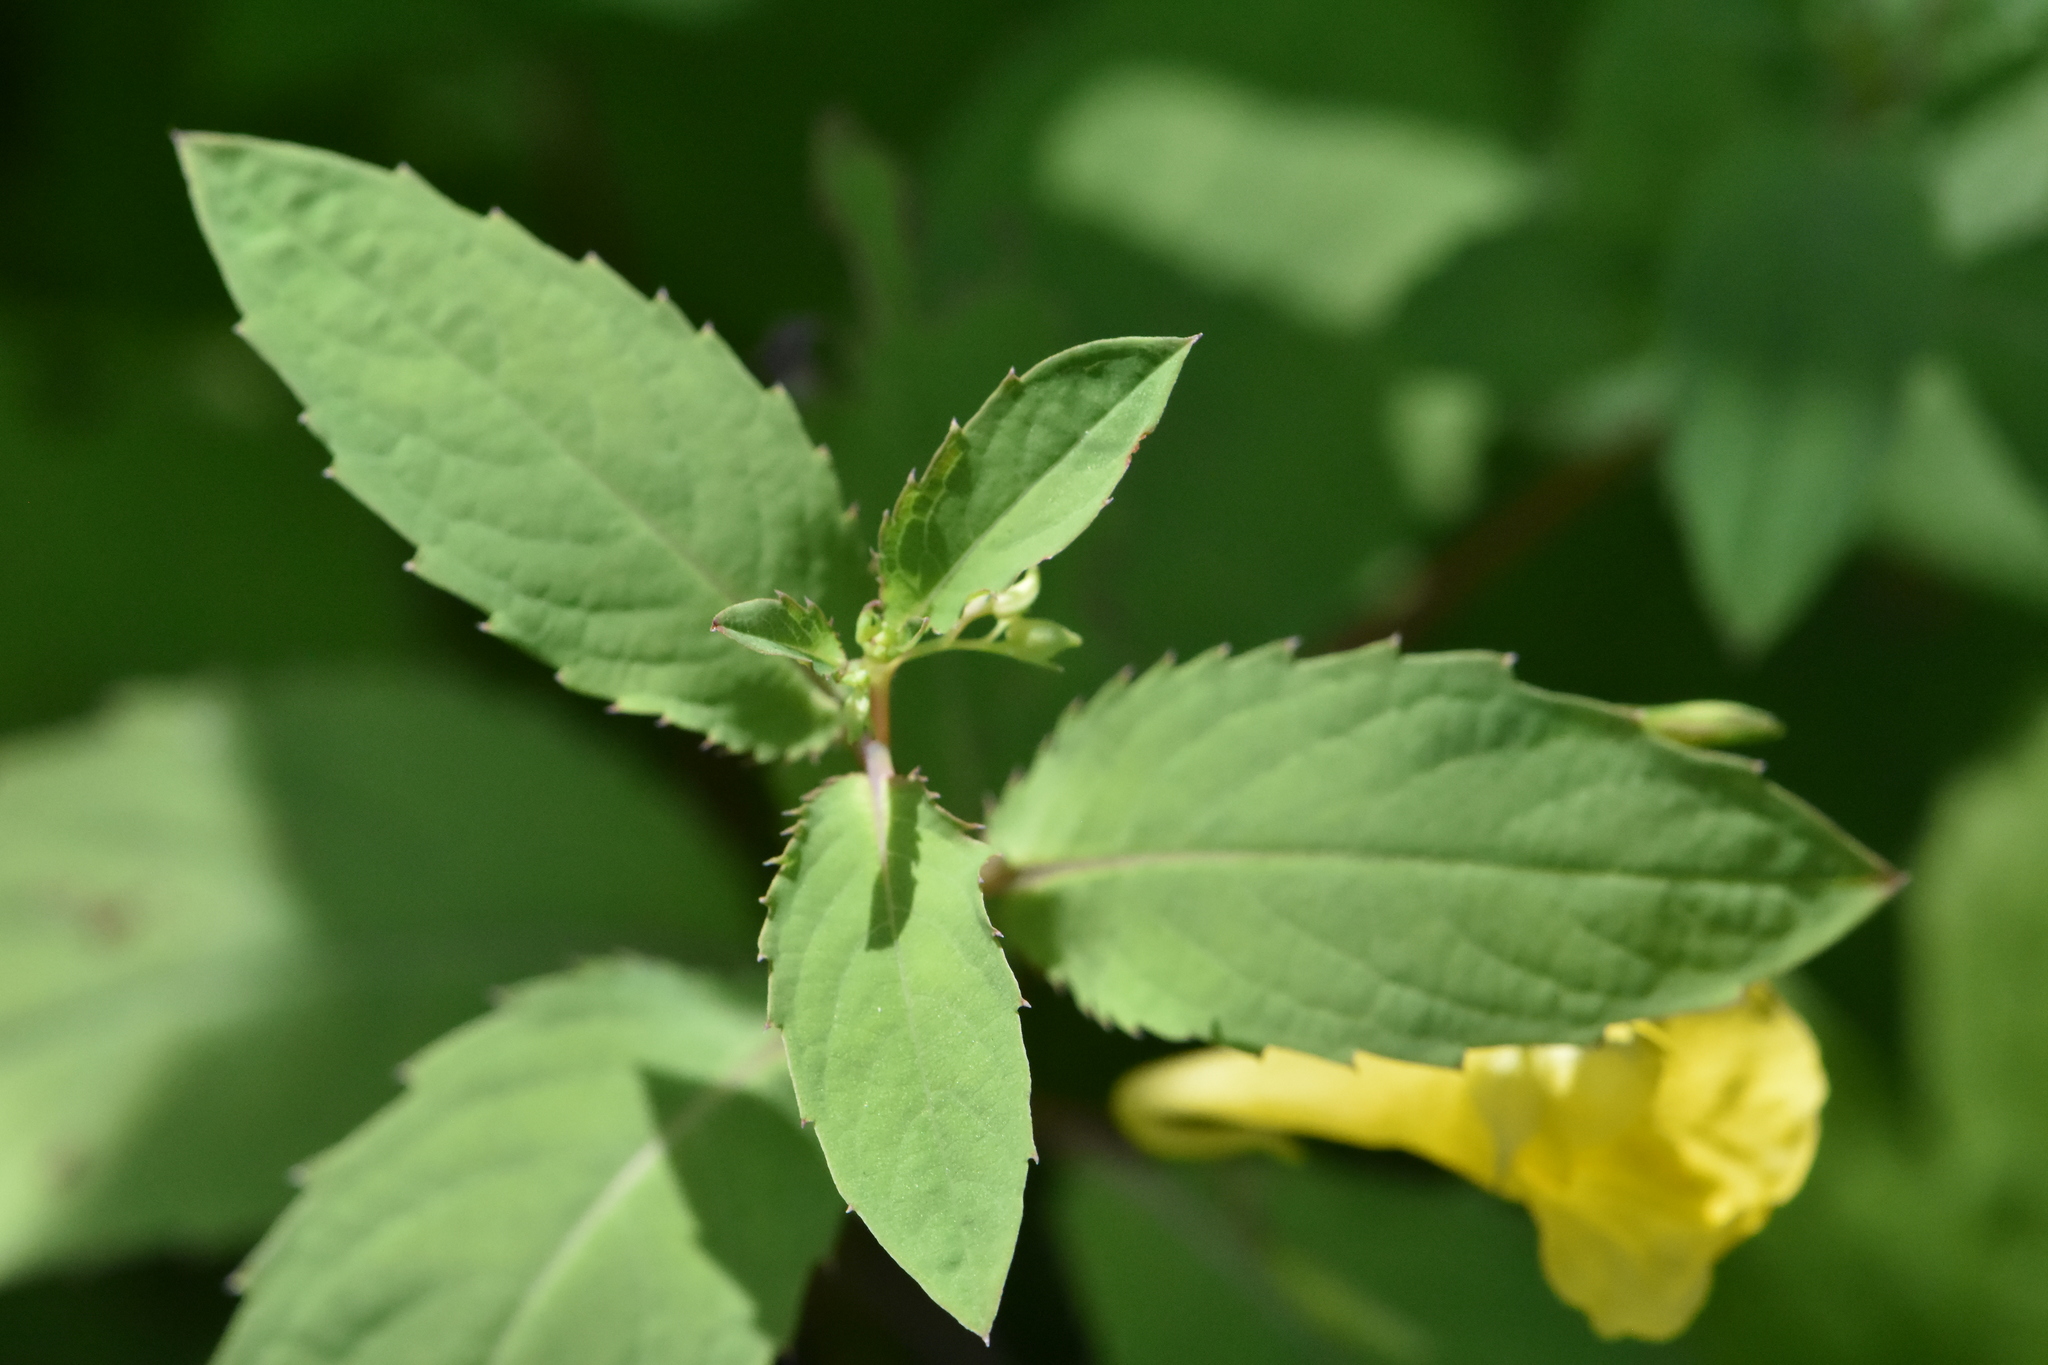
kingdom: Plantae
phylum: Tracheophyta
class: Magnoliopsida
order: Ericales
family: Balsaminaceae
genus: Impatiens
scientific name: Impatiens noli-tangere
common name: Touch-me-not balsam
